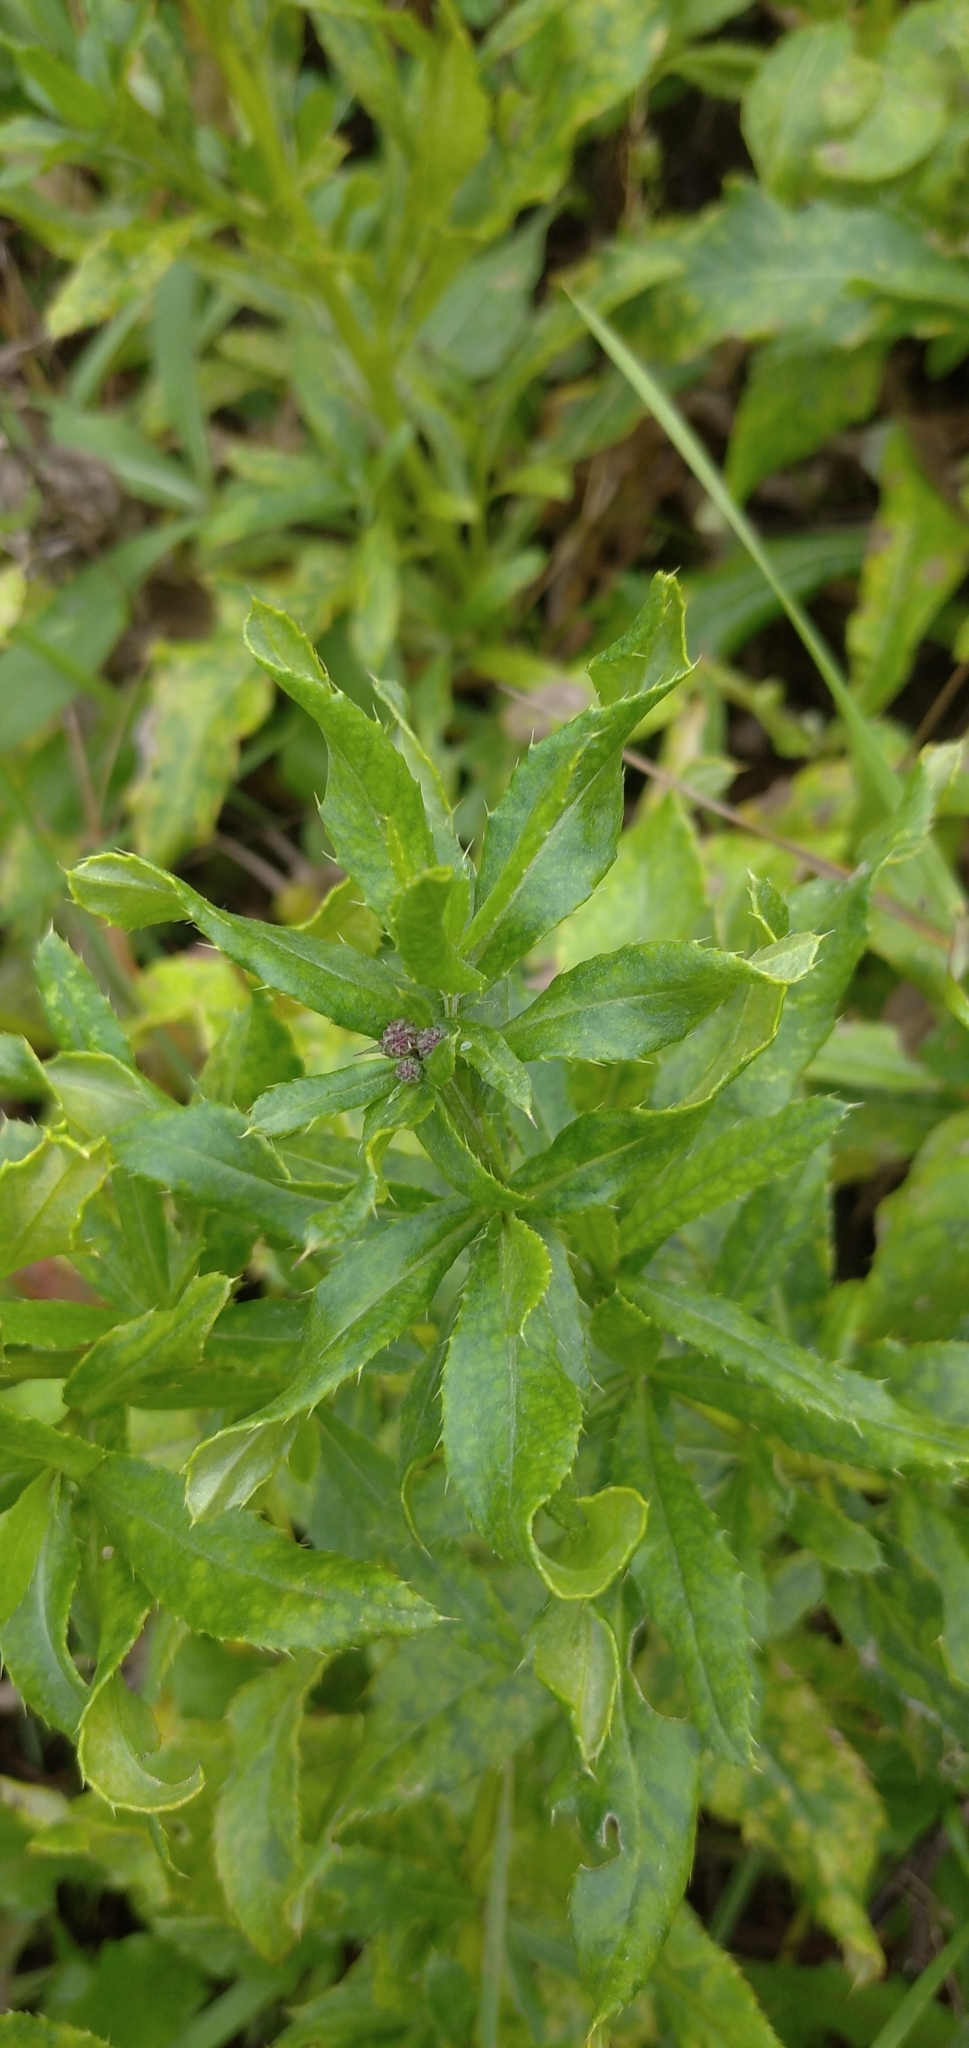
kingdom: Plantae
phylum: Tracheophyta
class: Magnoliopsida
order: Asterales
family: Asteraceae
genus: Cirsium
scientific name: Cirsium arvense
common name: Creeping thistle
